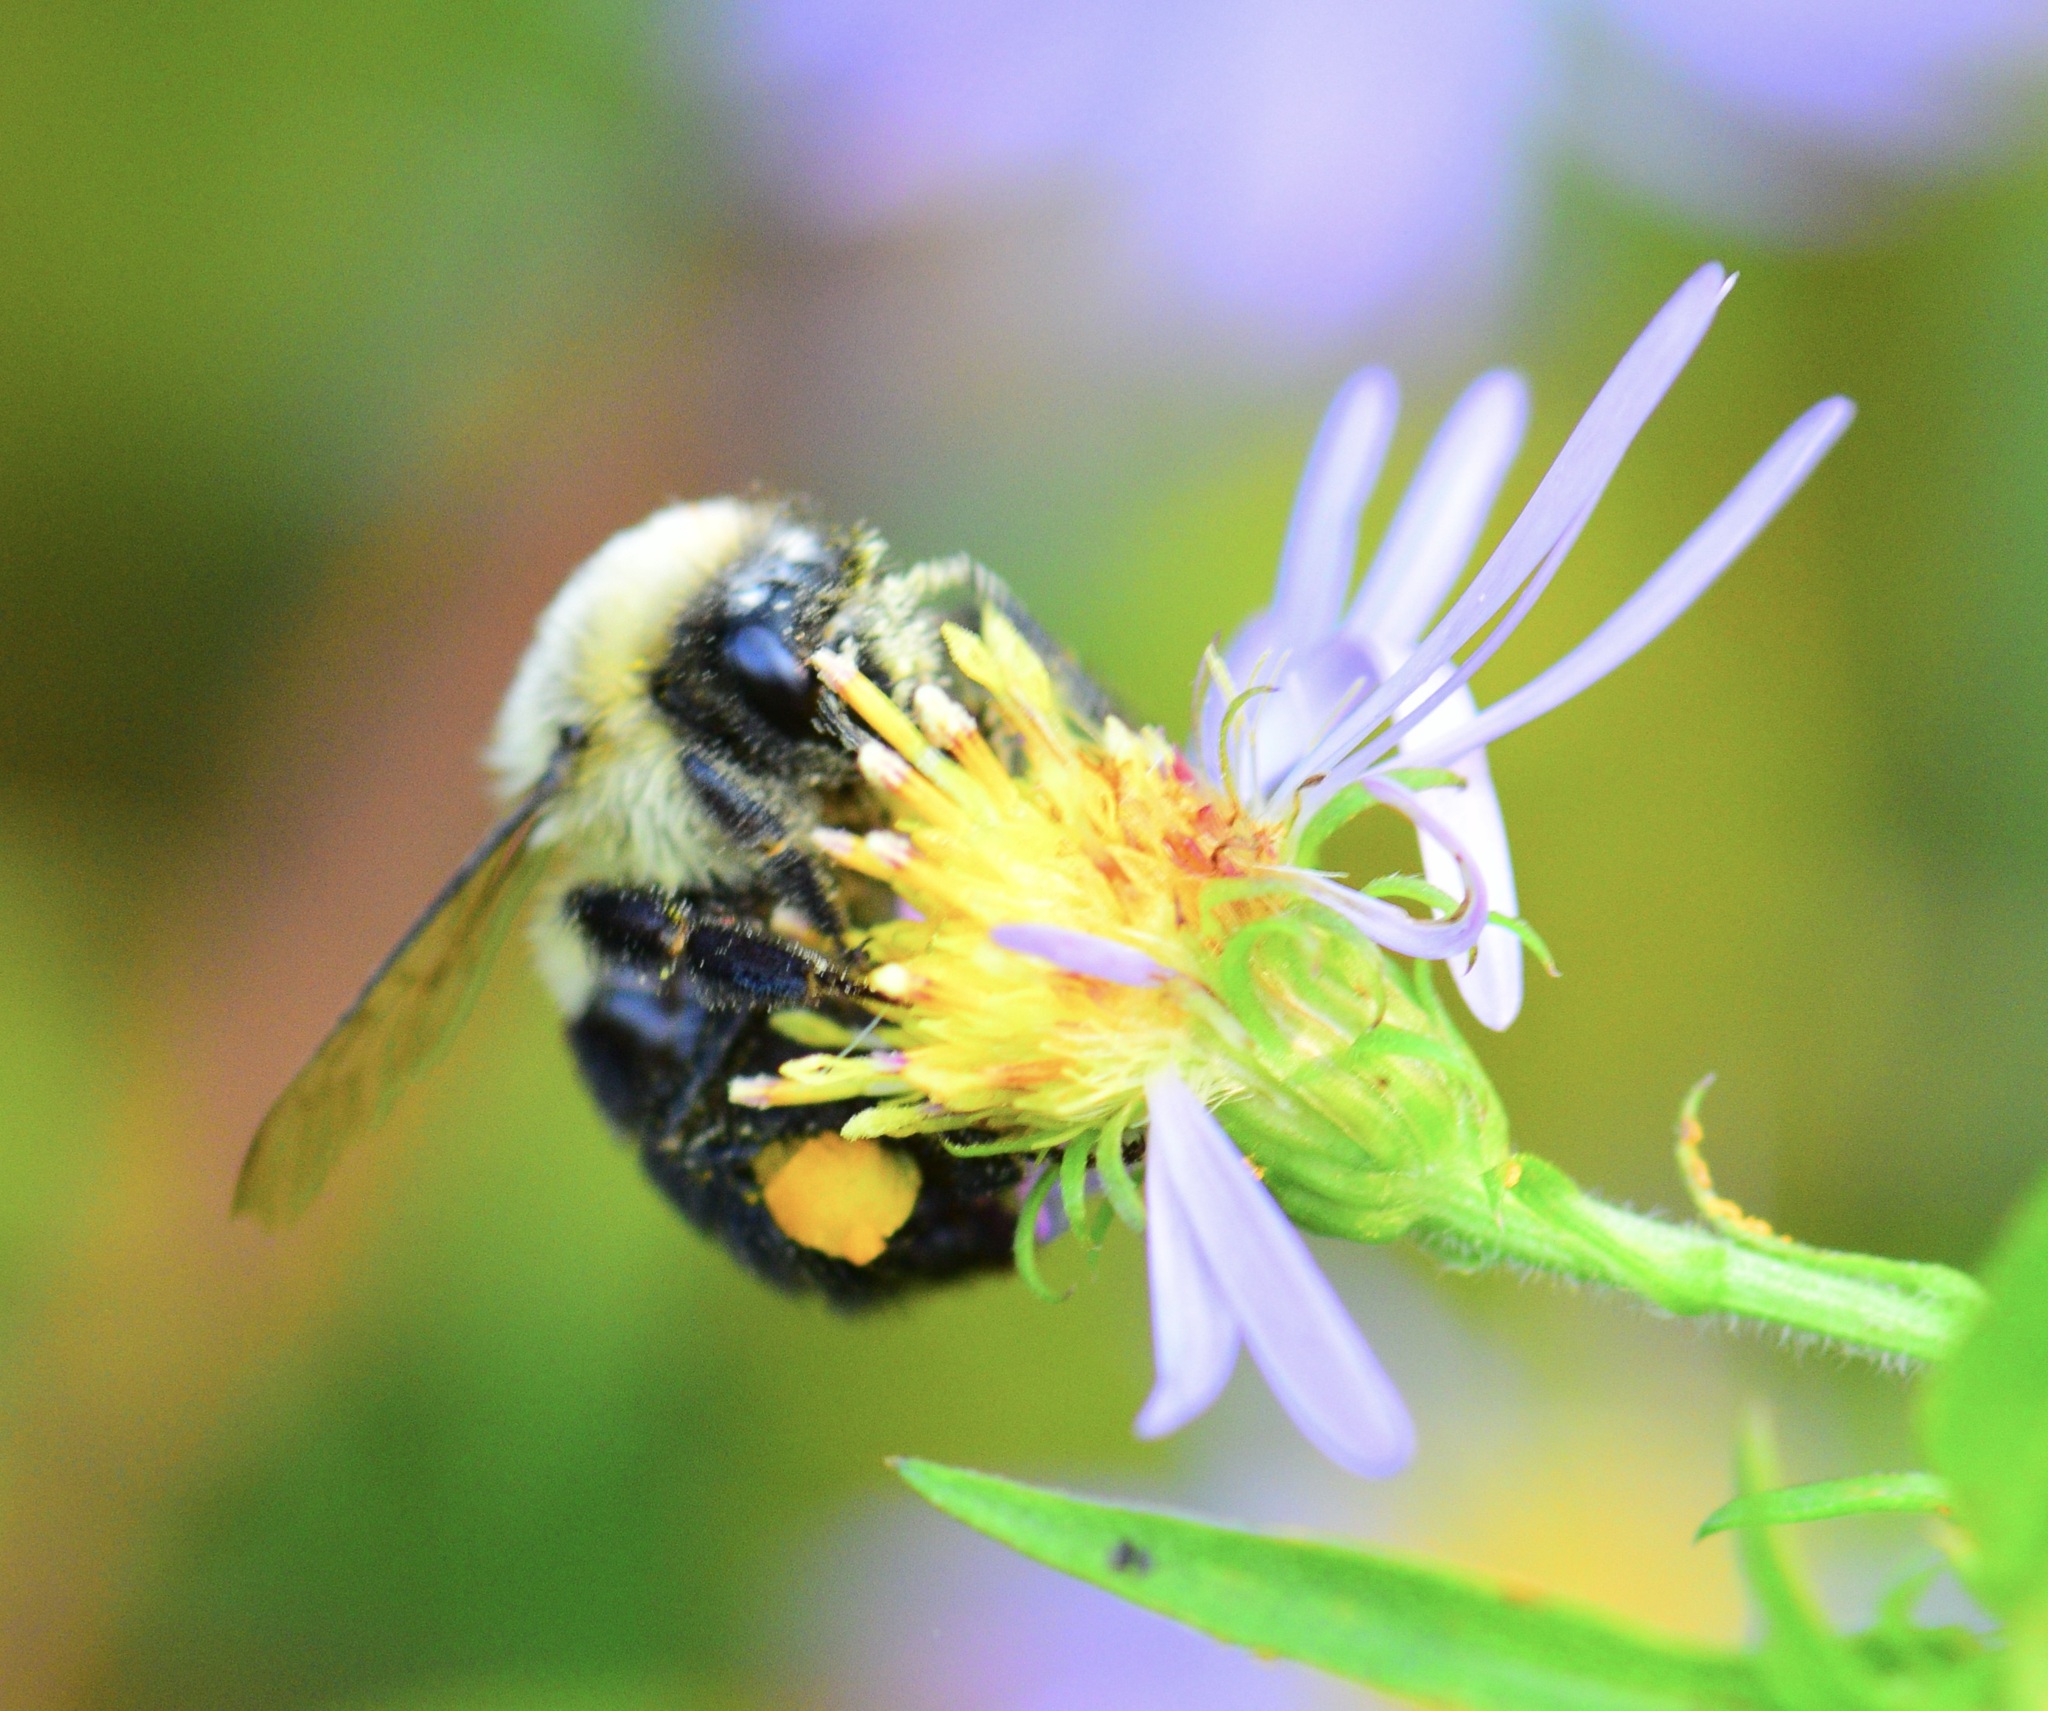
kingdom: Animalia
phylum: Arthropoda
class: Insecta
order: Hymenoptera
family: Apidae
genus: Bombus
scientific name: Bombus impatiens
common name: Common eastern bumble bee
